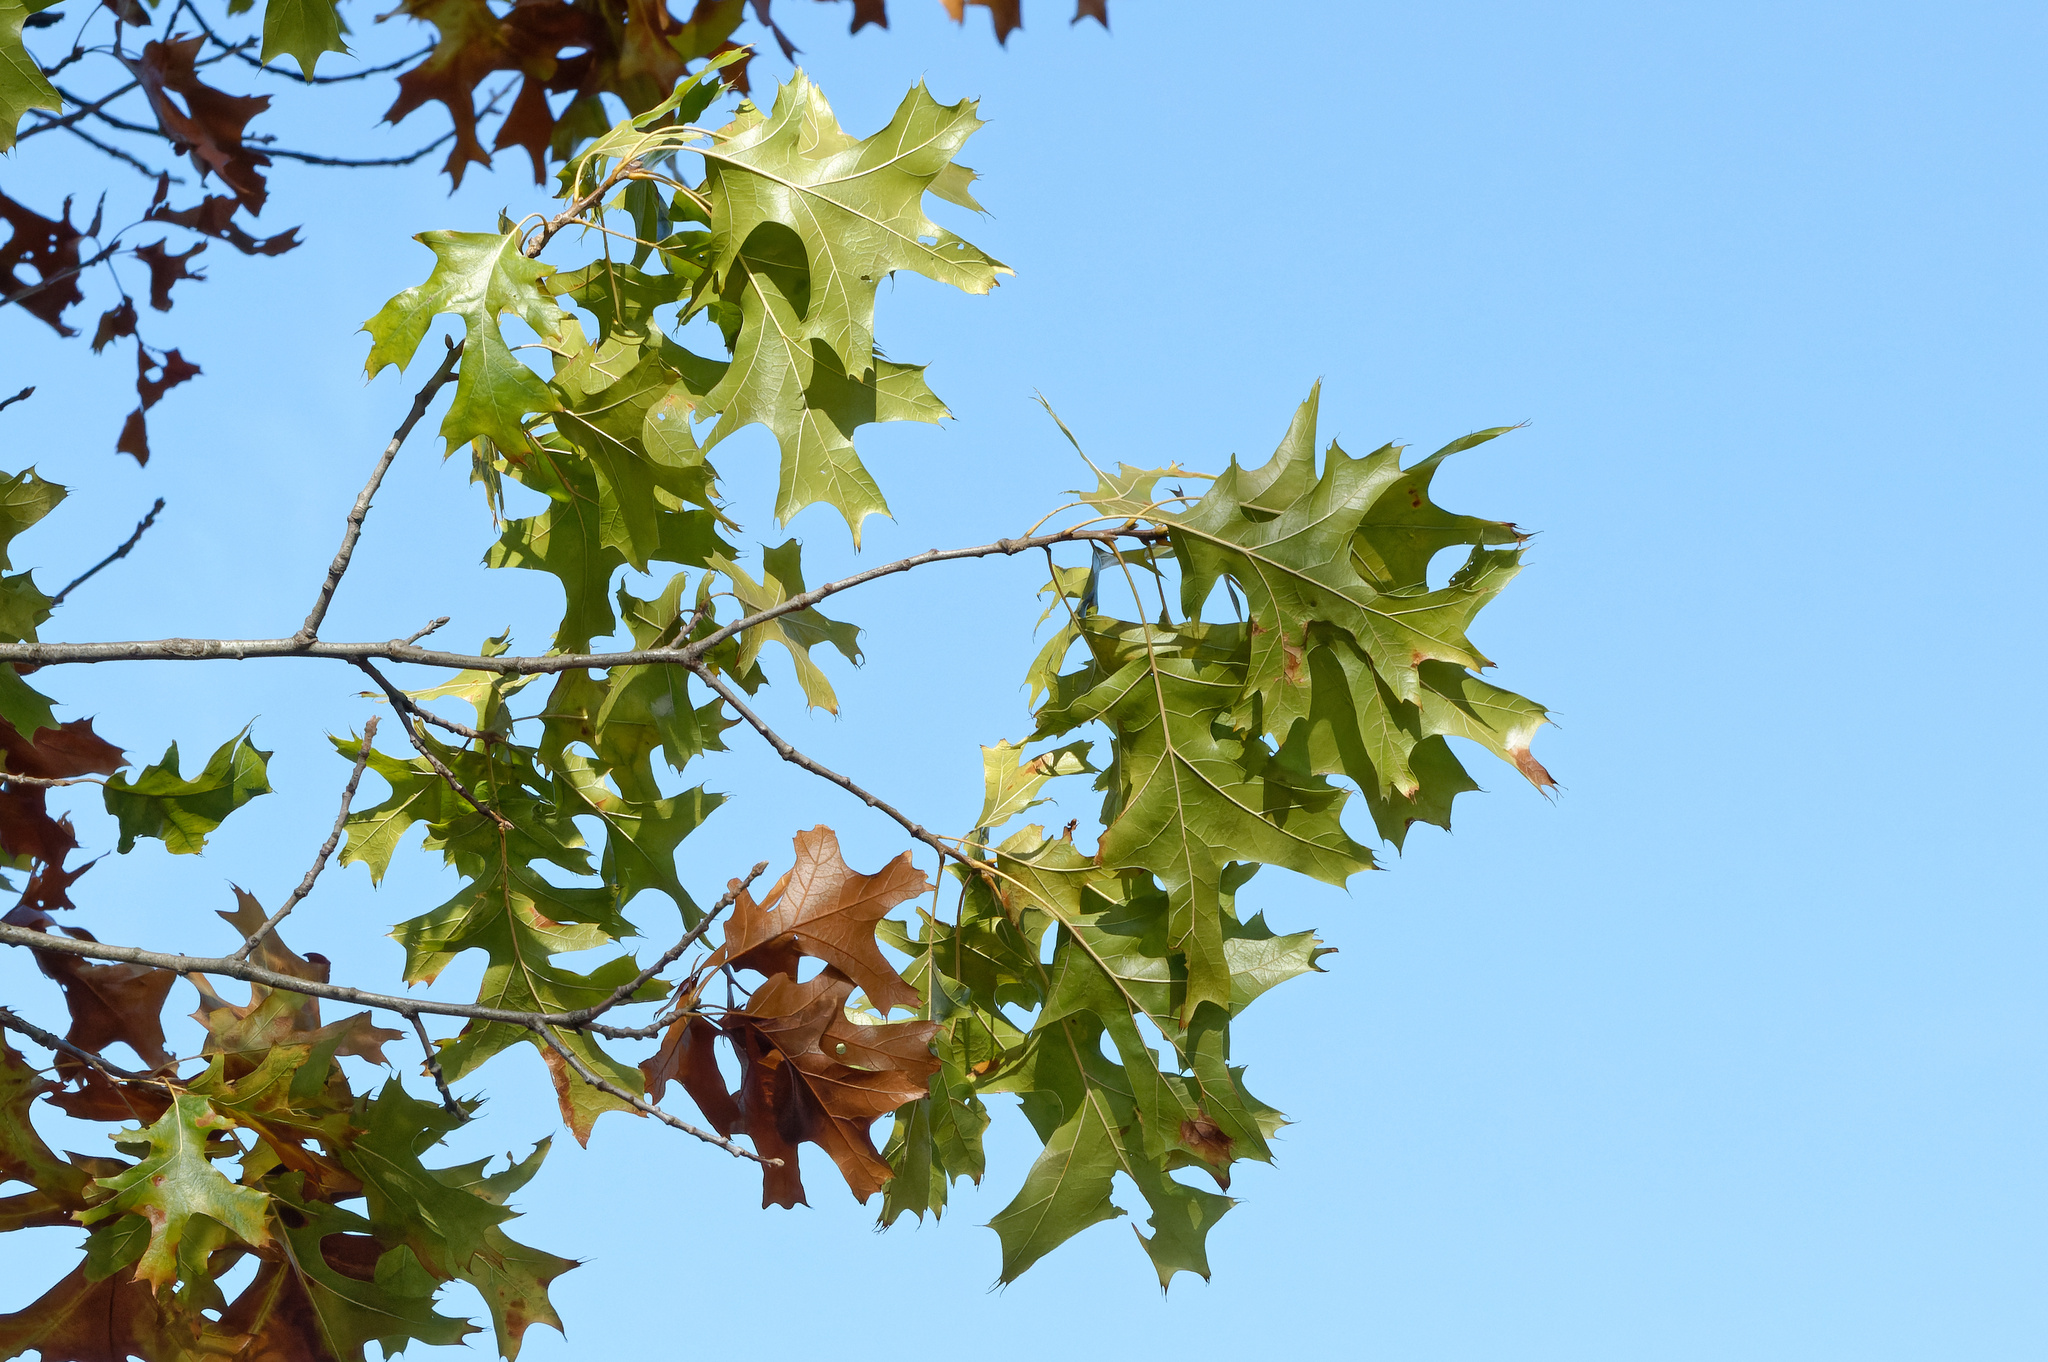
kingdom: Plantae
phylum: Tracheophyta
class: Magnoliopsida
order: Fagales
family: Fagaceae
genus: Quercus
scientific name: Quercus velutina
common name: Black oak
